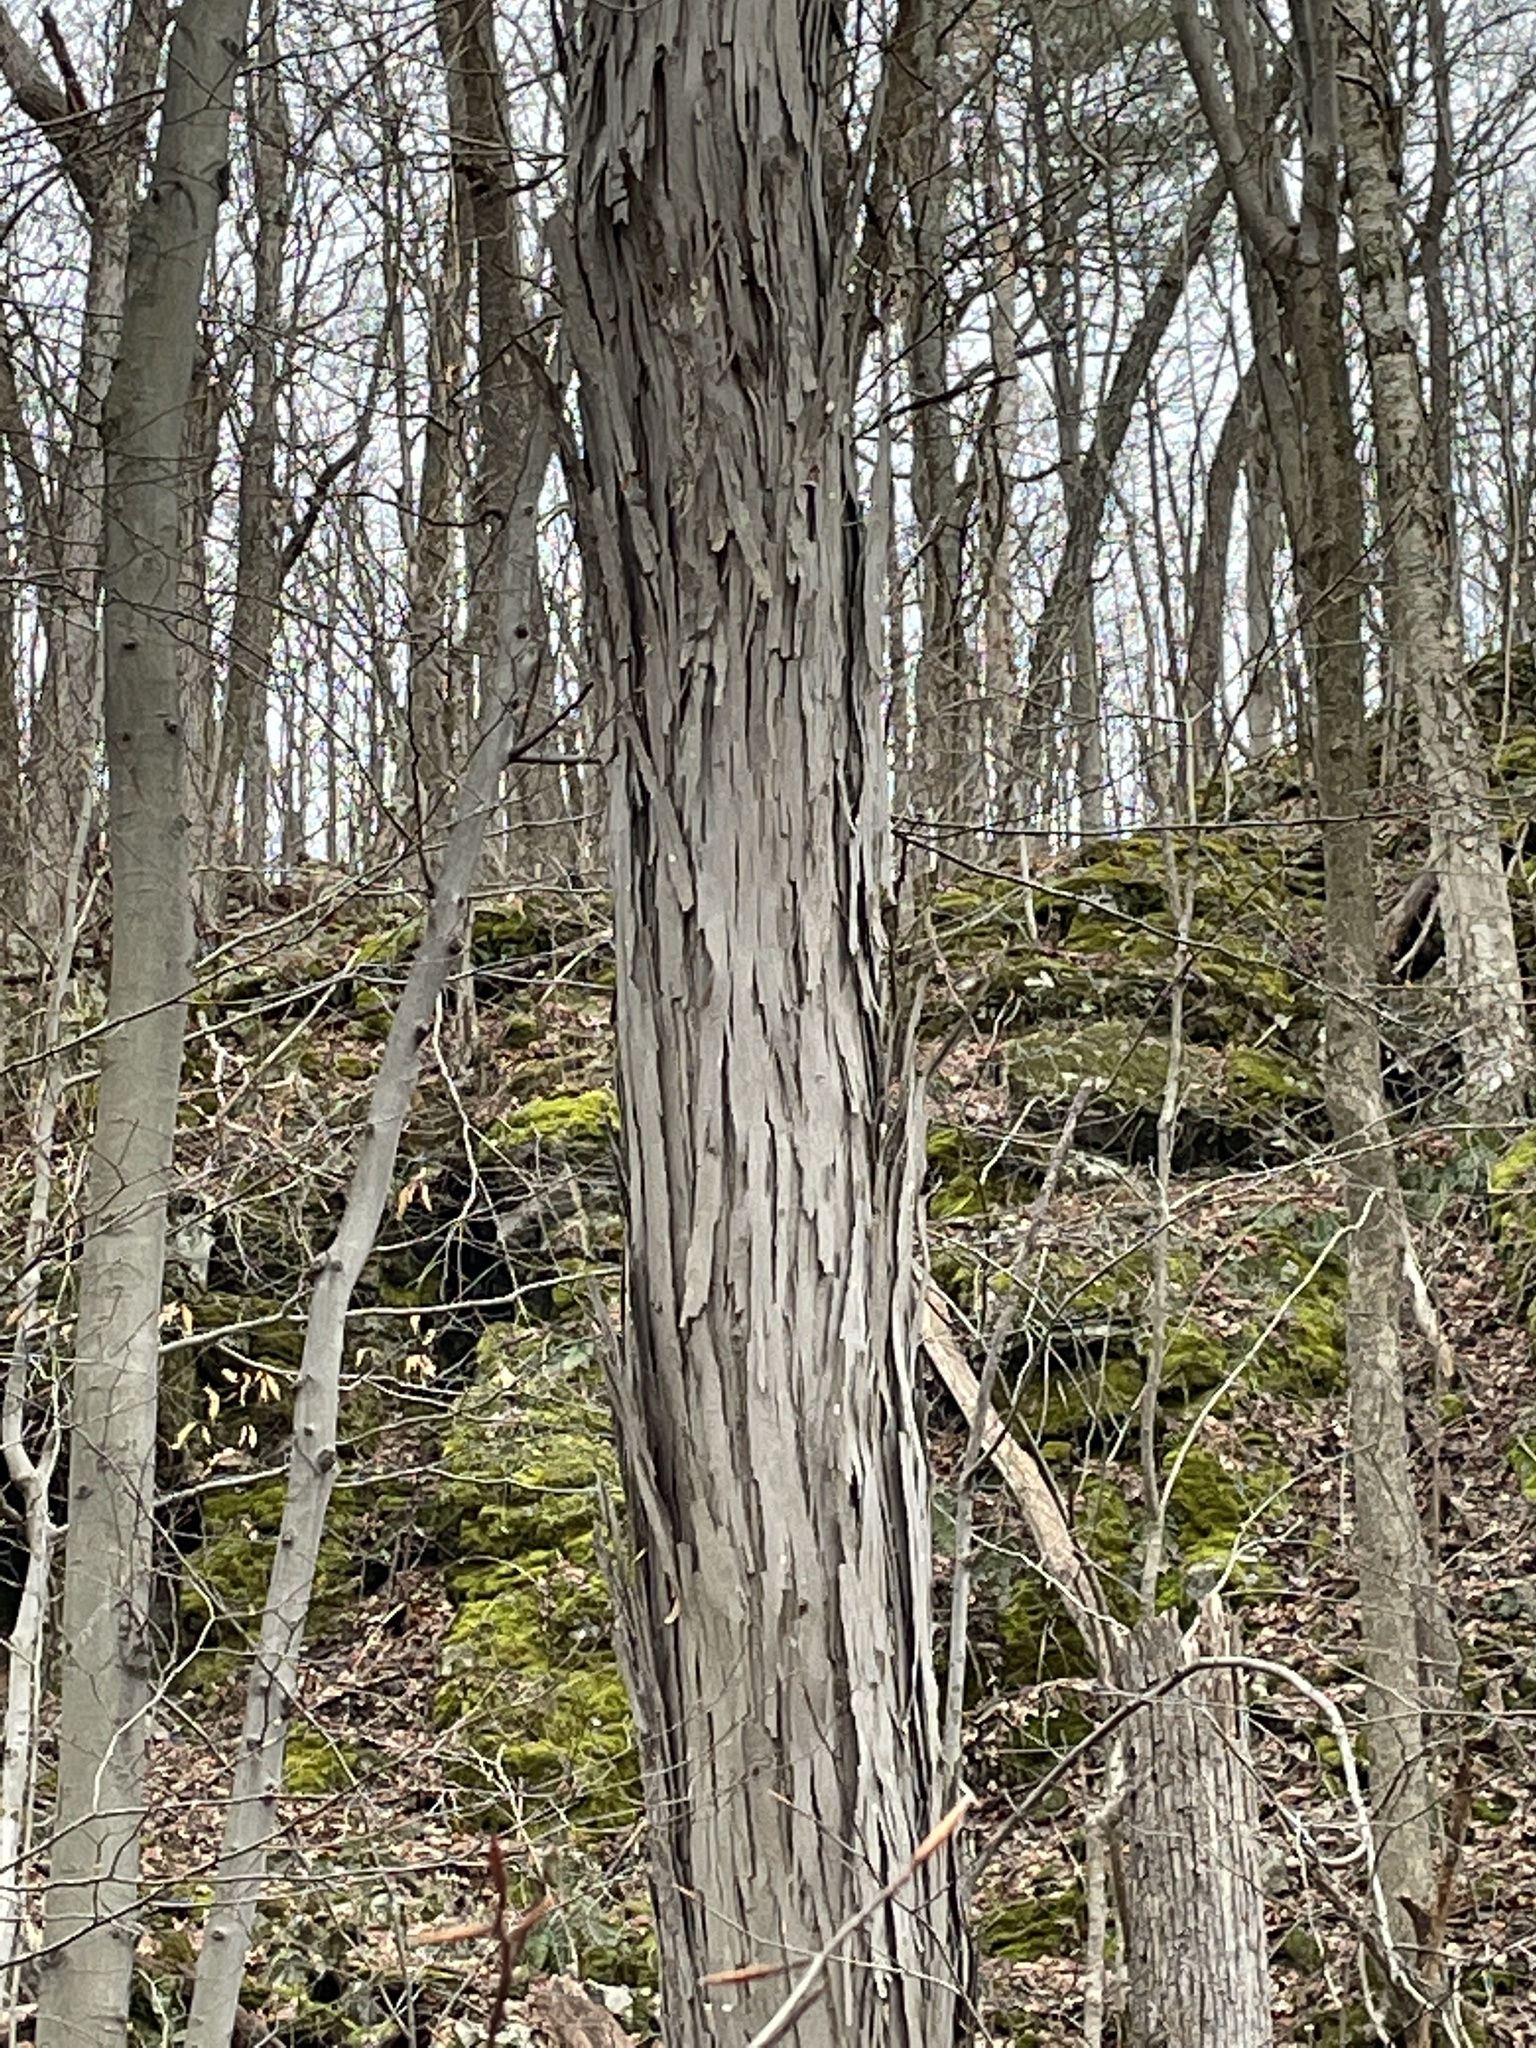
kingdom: Plantae
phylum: Tracheophyta
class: Magnoliopsida
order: Fagales
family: Juglandaceae
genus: Carya
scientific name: Carya ovata
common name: Shagbark hickory
